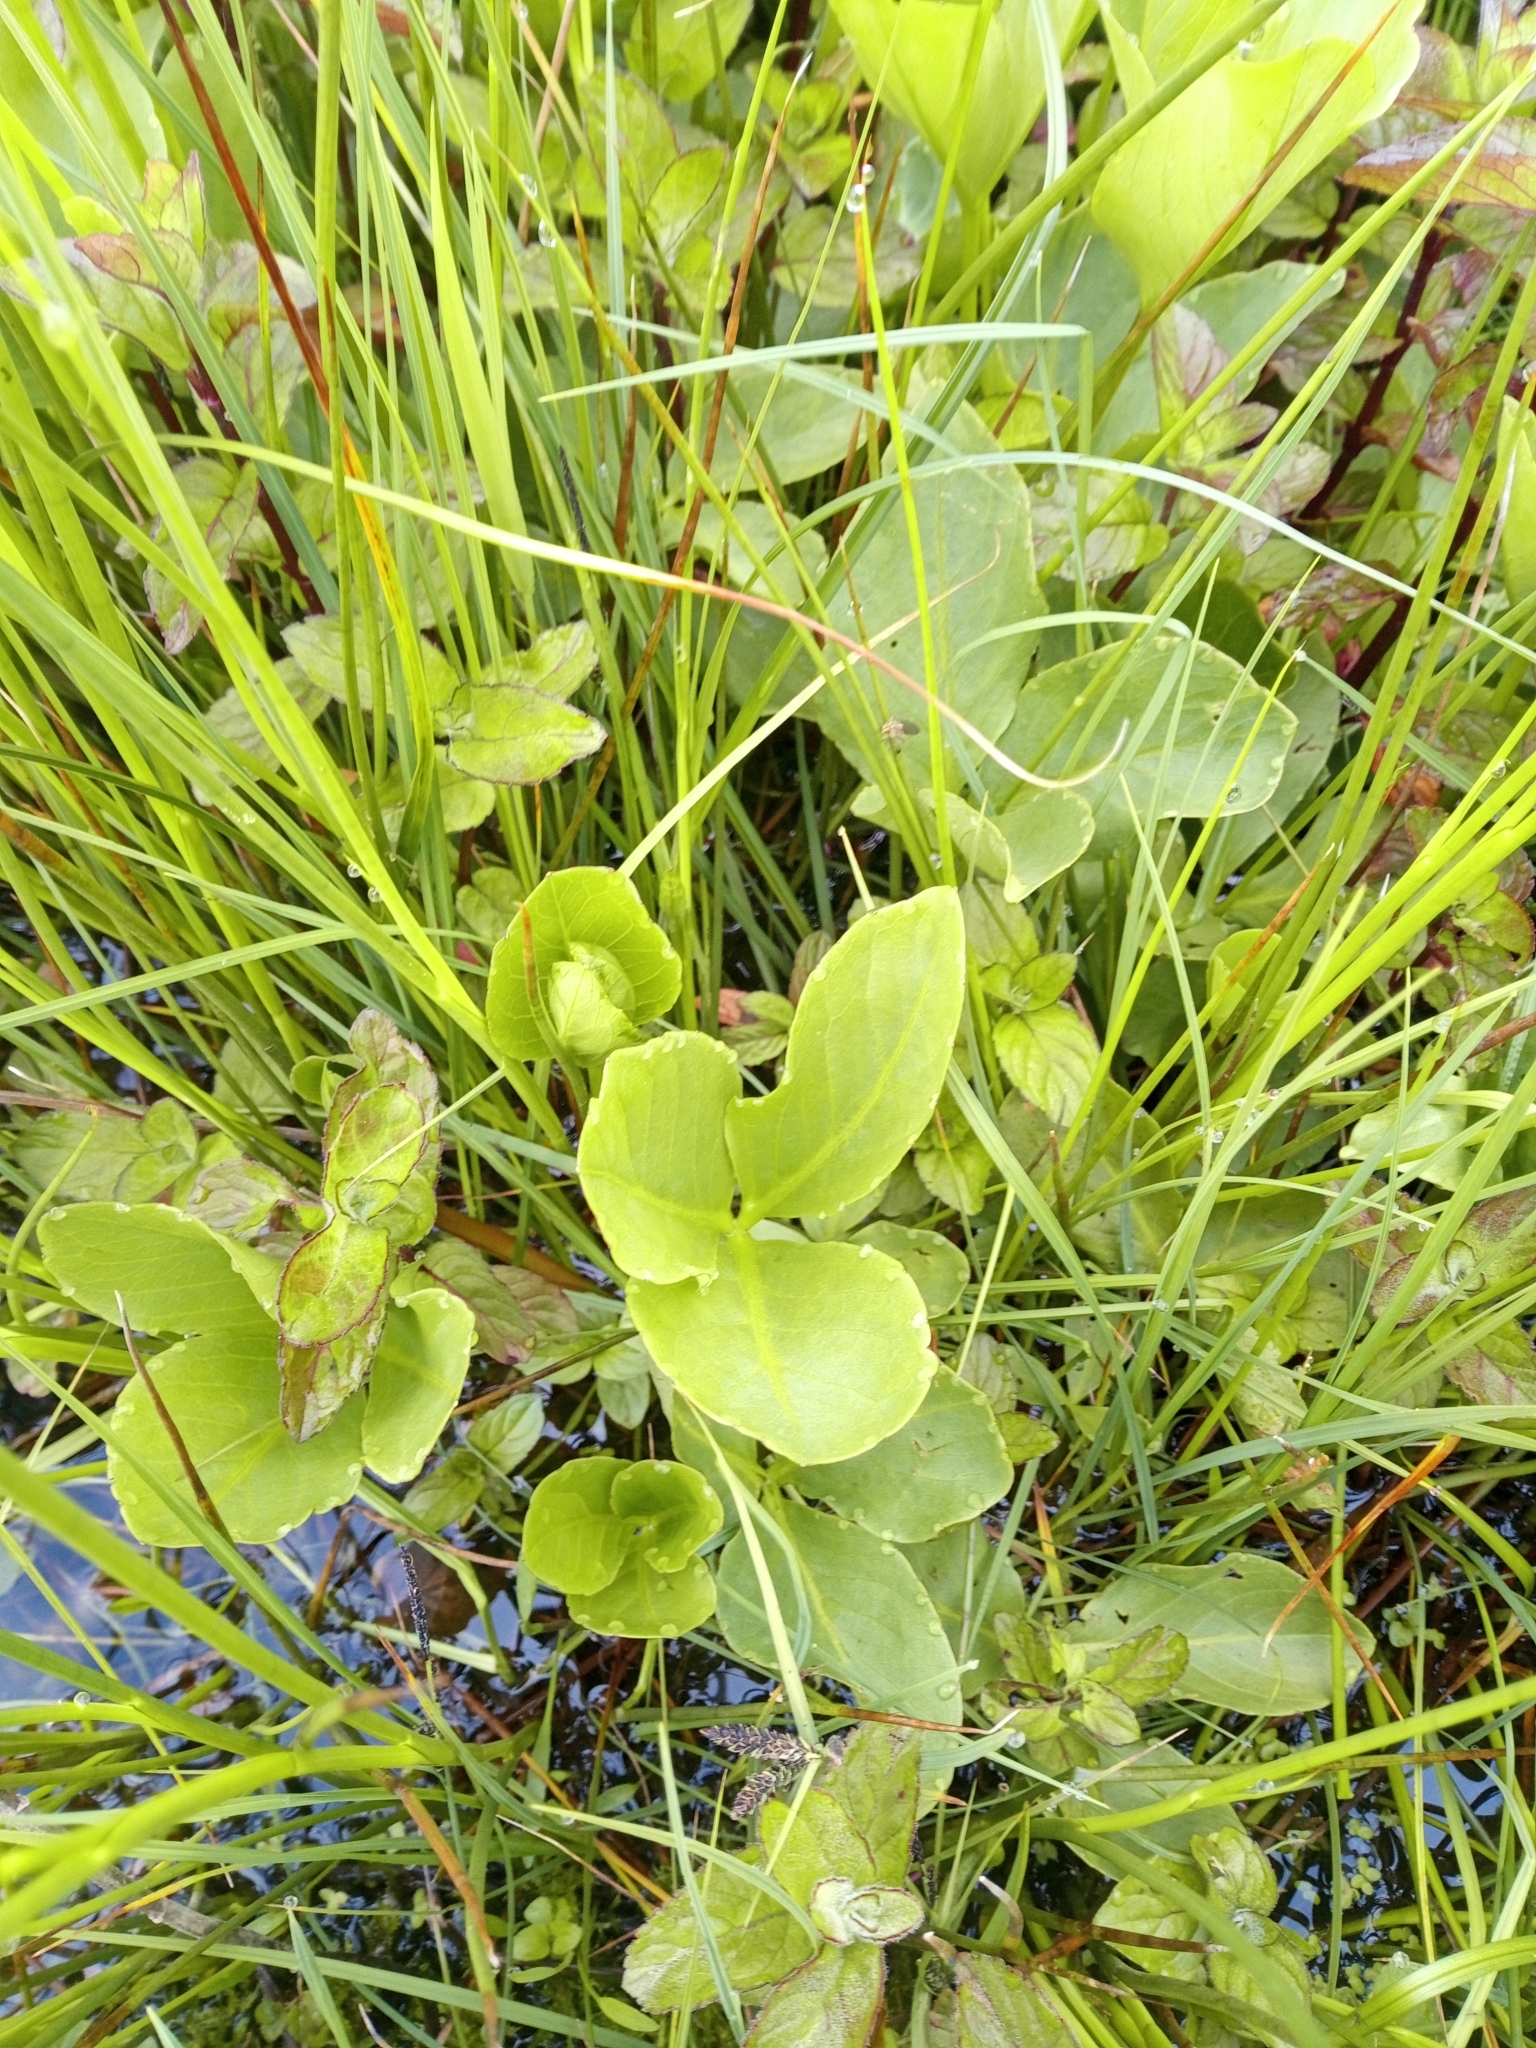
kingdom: Plantae
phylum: Tracheophyta
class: Magnoliopsida
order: Asterales
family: Menyanthaceae
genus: Menyanthes
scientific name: Menyanthes trifoliata
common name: Bogbean
